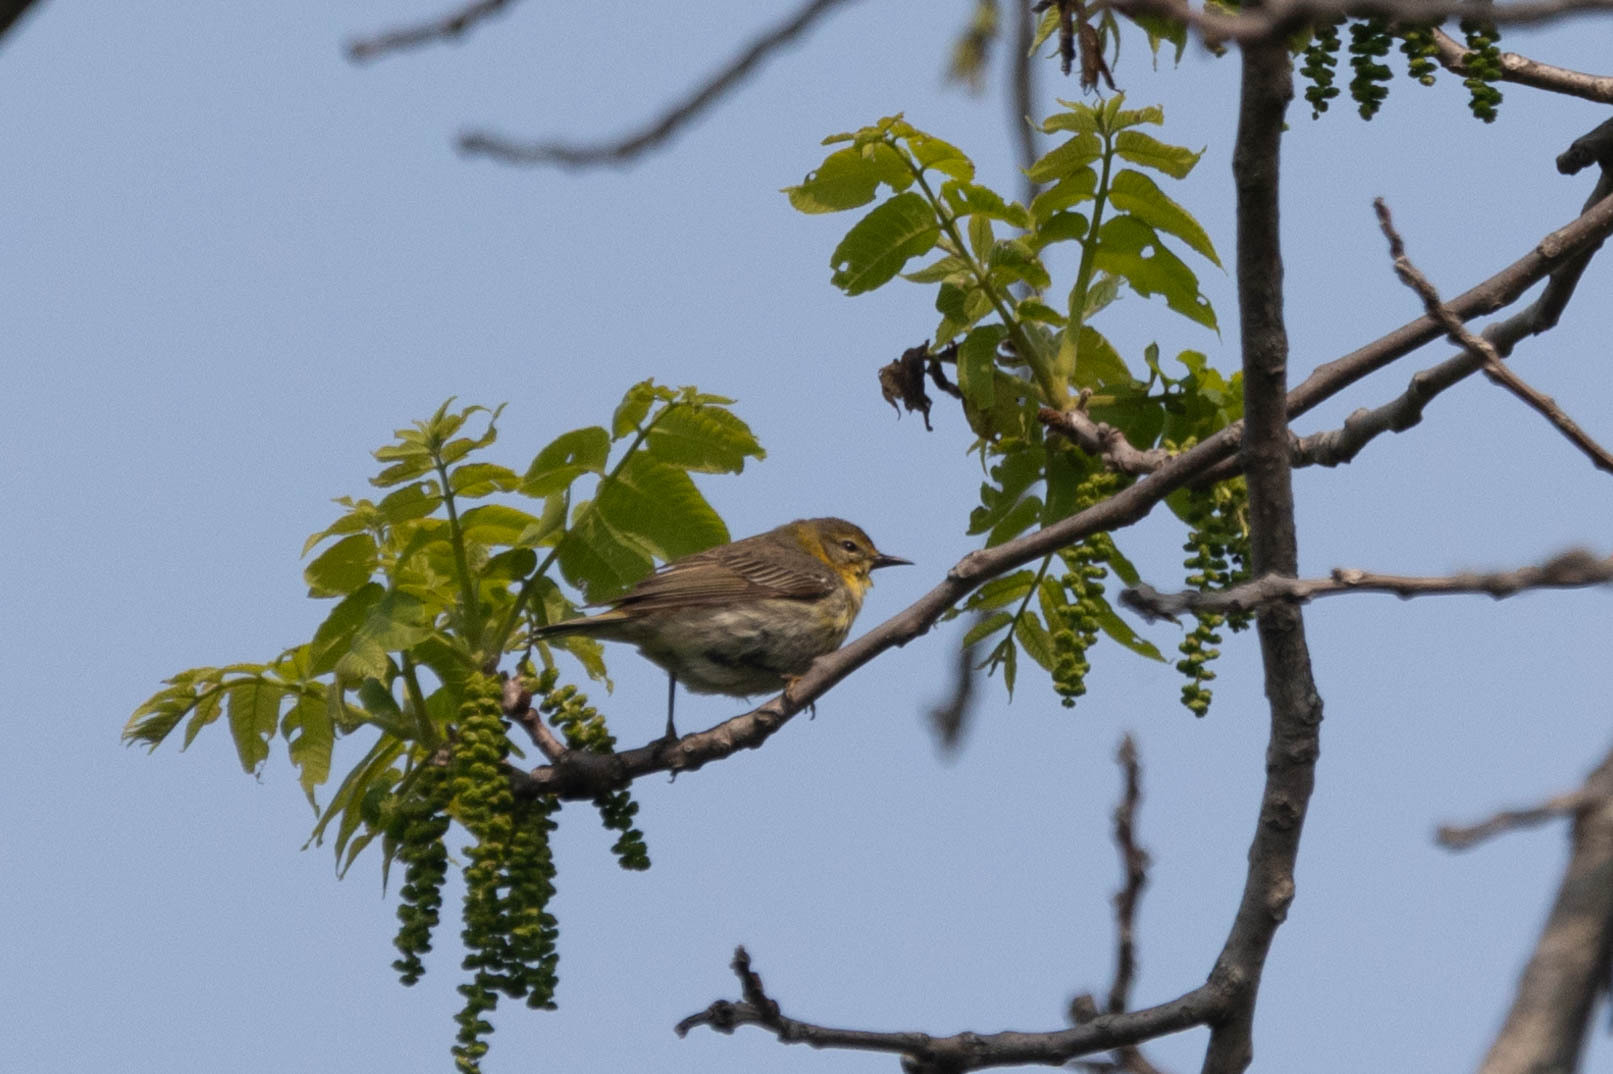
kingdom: Animalia
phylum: Chordata
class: Aves
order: Passeriformes
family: Parulidae
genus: Setophaga
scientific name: Setophaga tigrina
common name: Cape may warbler
